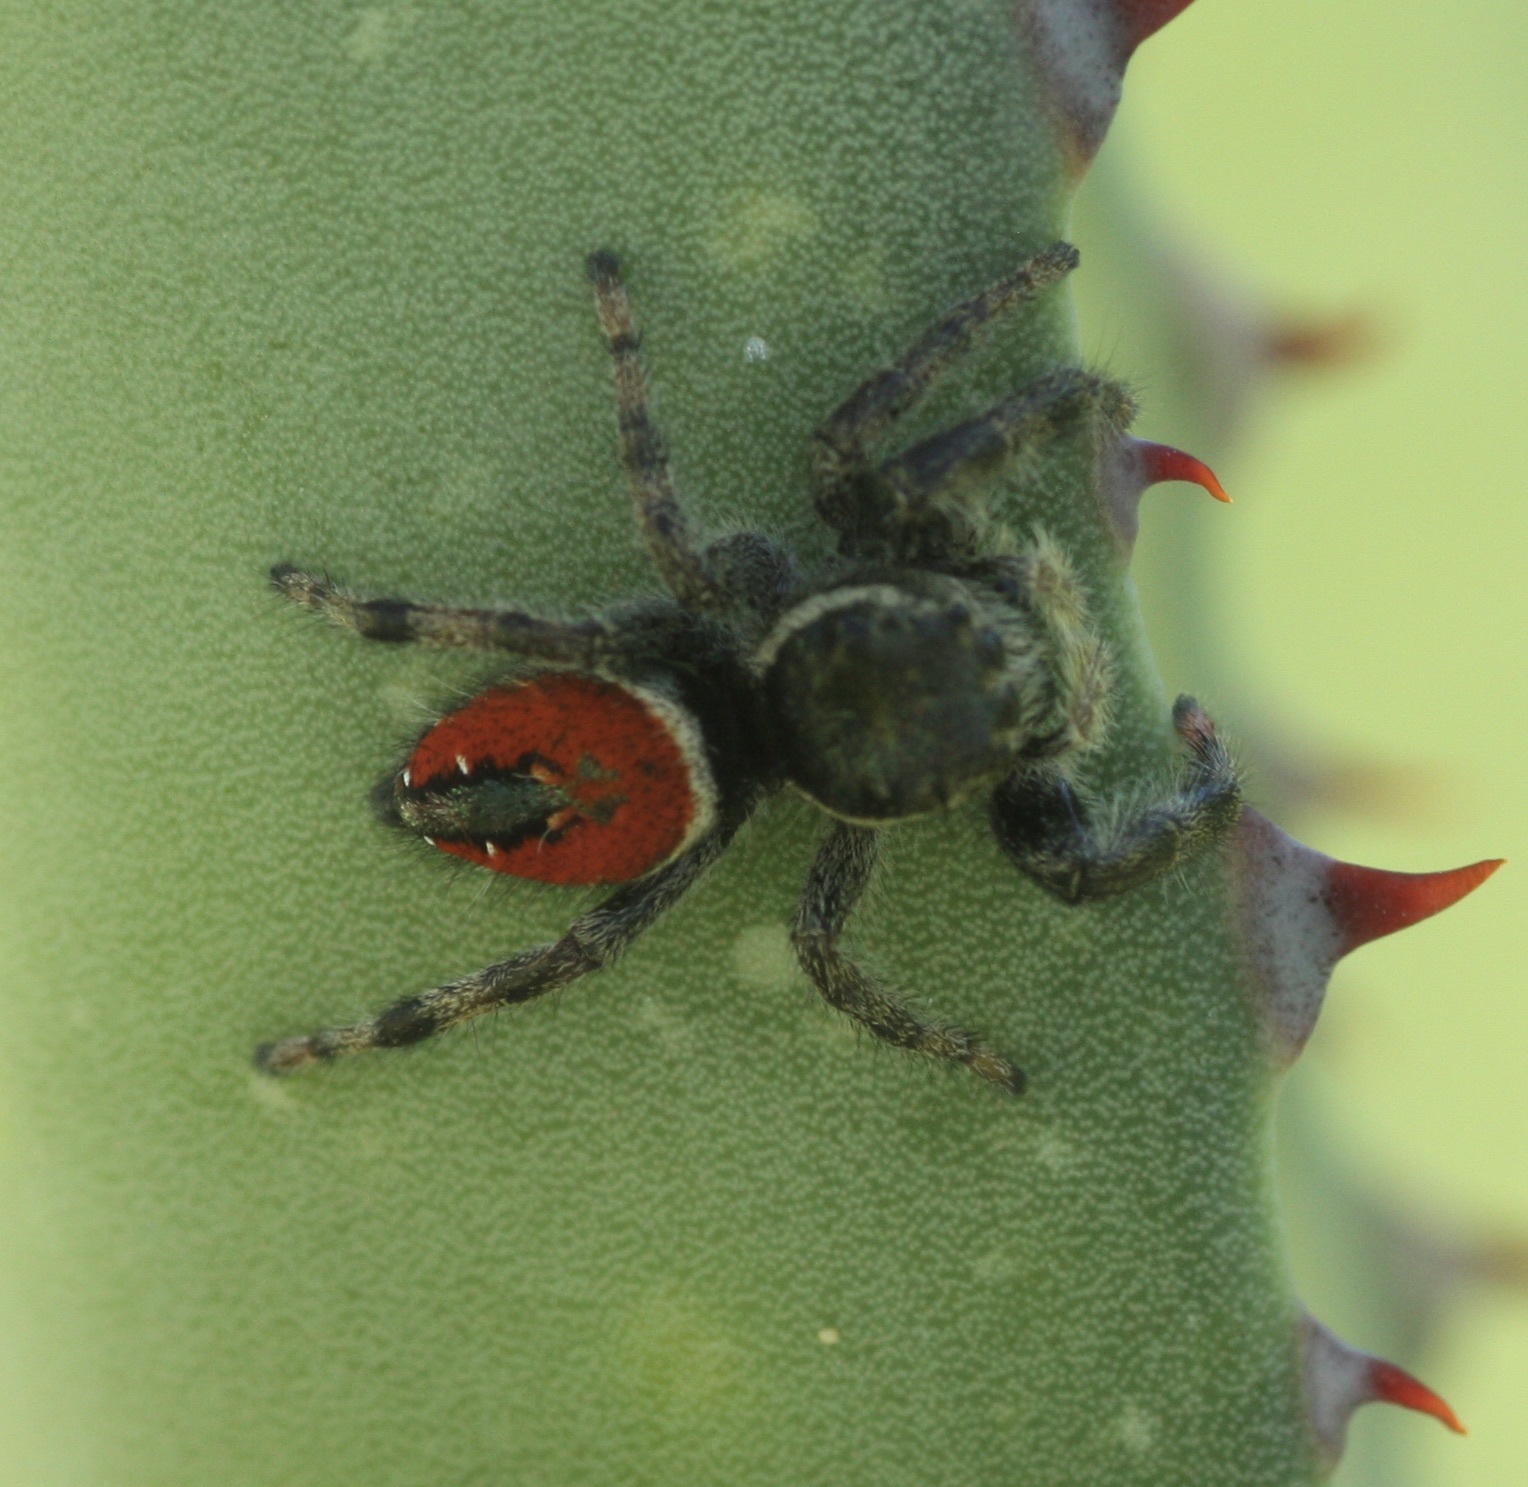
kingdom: Animalia
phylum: Arthropoda
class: Arachnida
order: Araneae
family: Salticidae
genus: Phidippus
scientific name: Phidippus carneus
